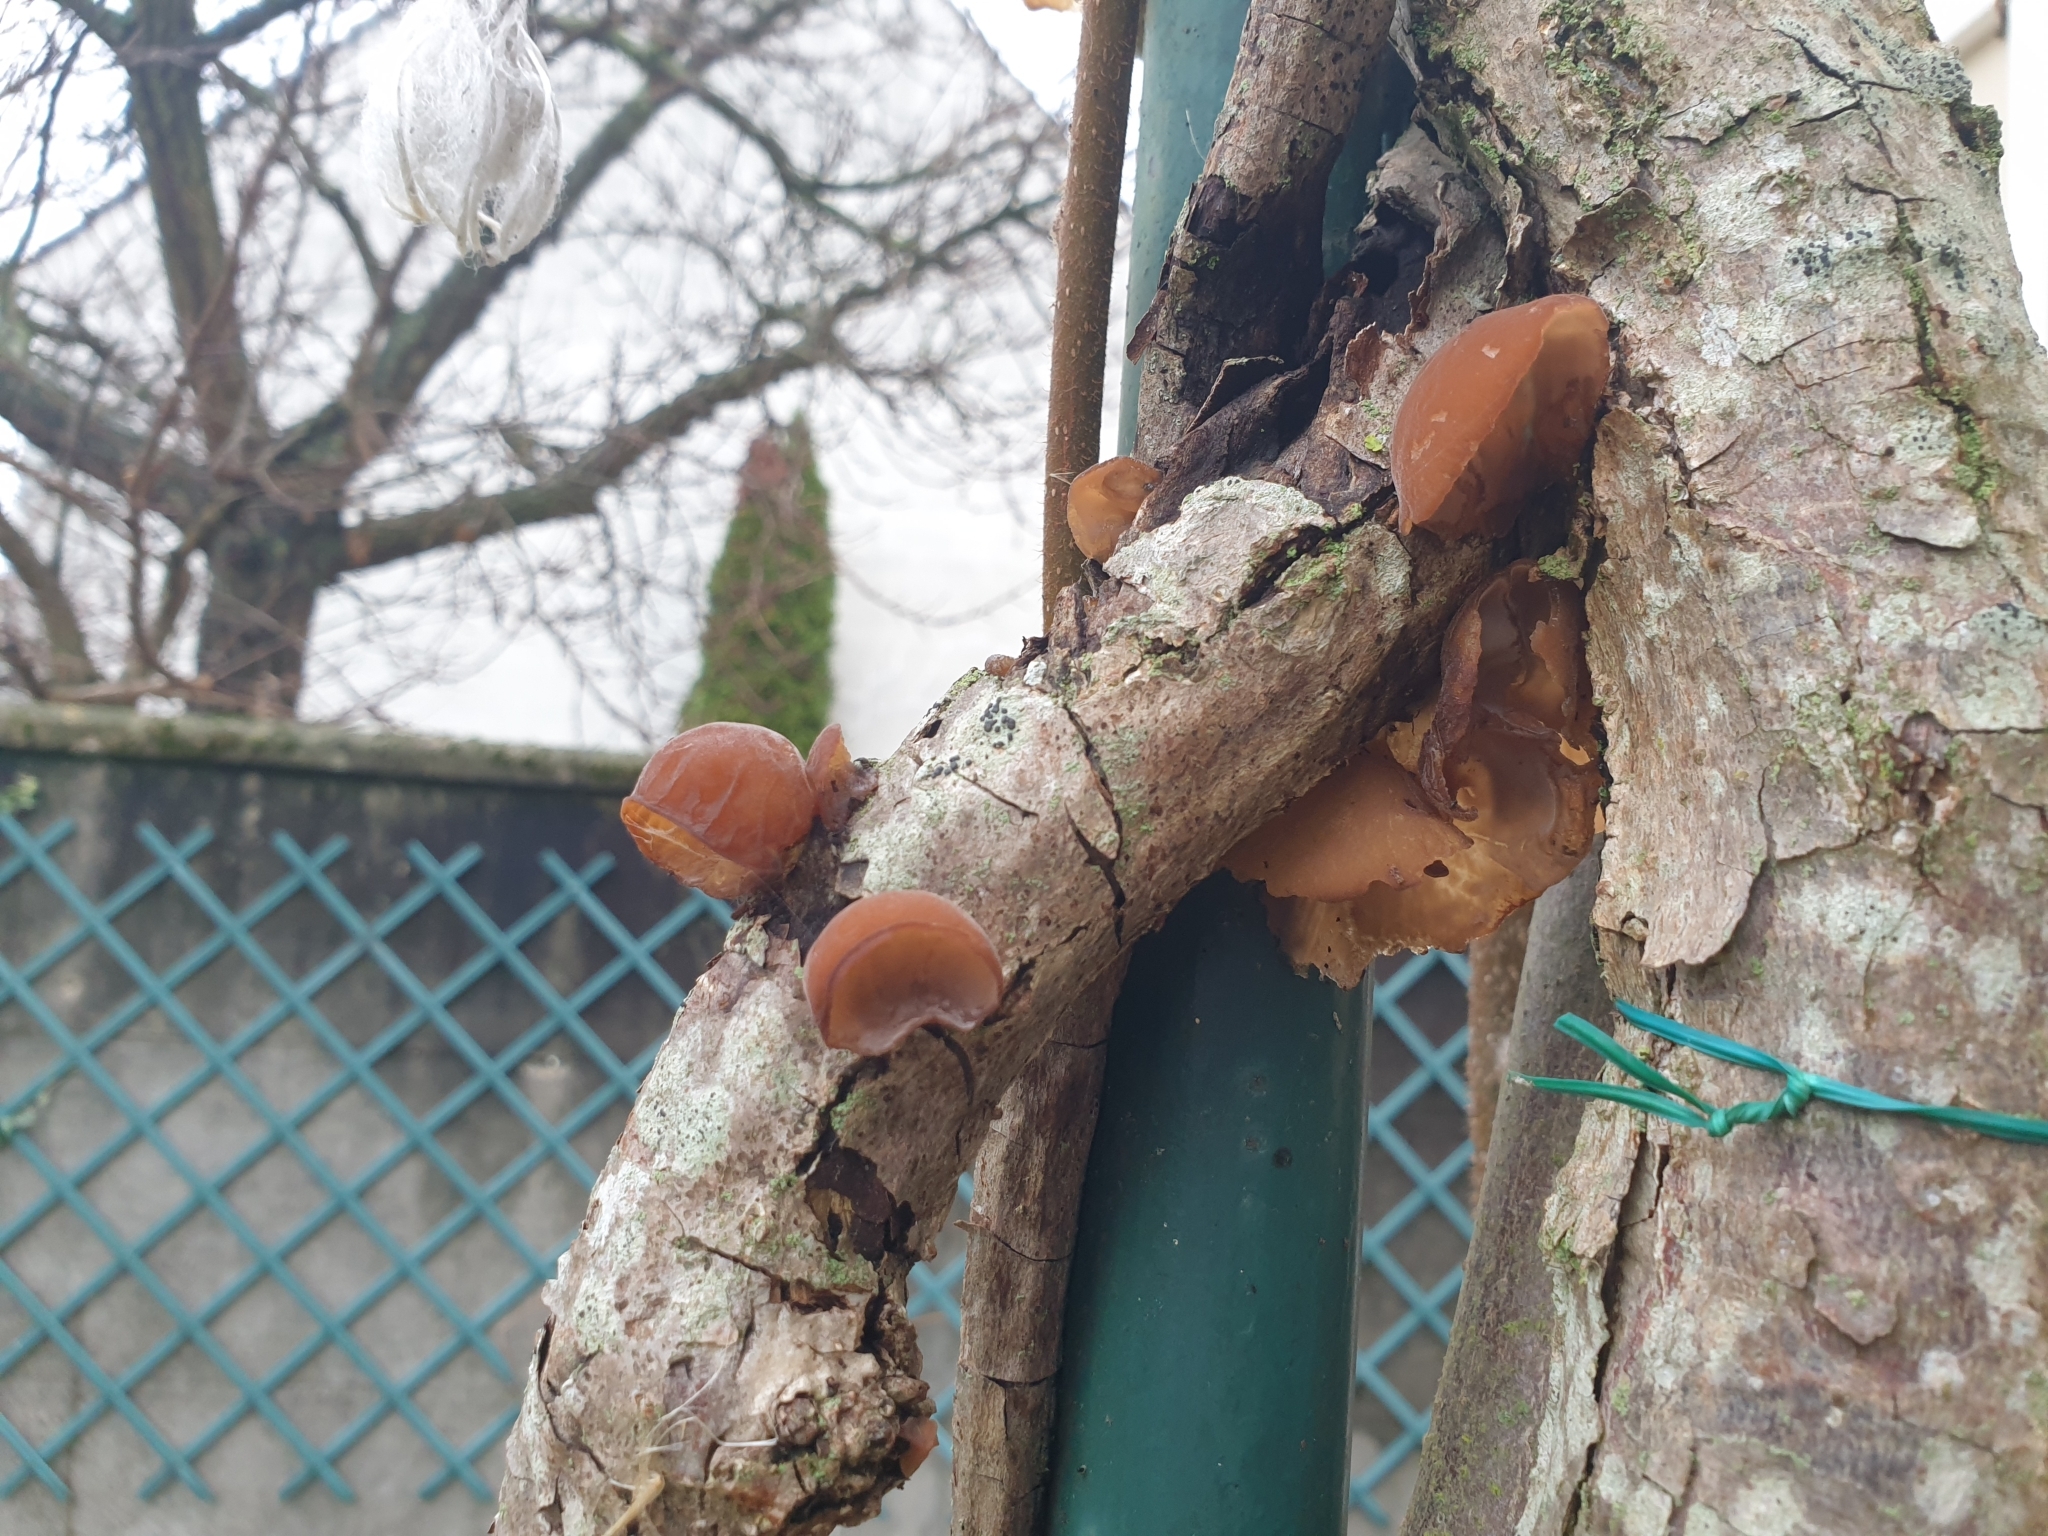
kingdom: Fungi
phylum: Basidiomycota
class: Agaricomycetes
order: Auriculariales
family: Auriculariaceae
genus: Auricularia
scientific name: Auricularia auricula-judae
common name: Jelly ear
